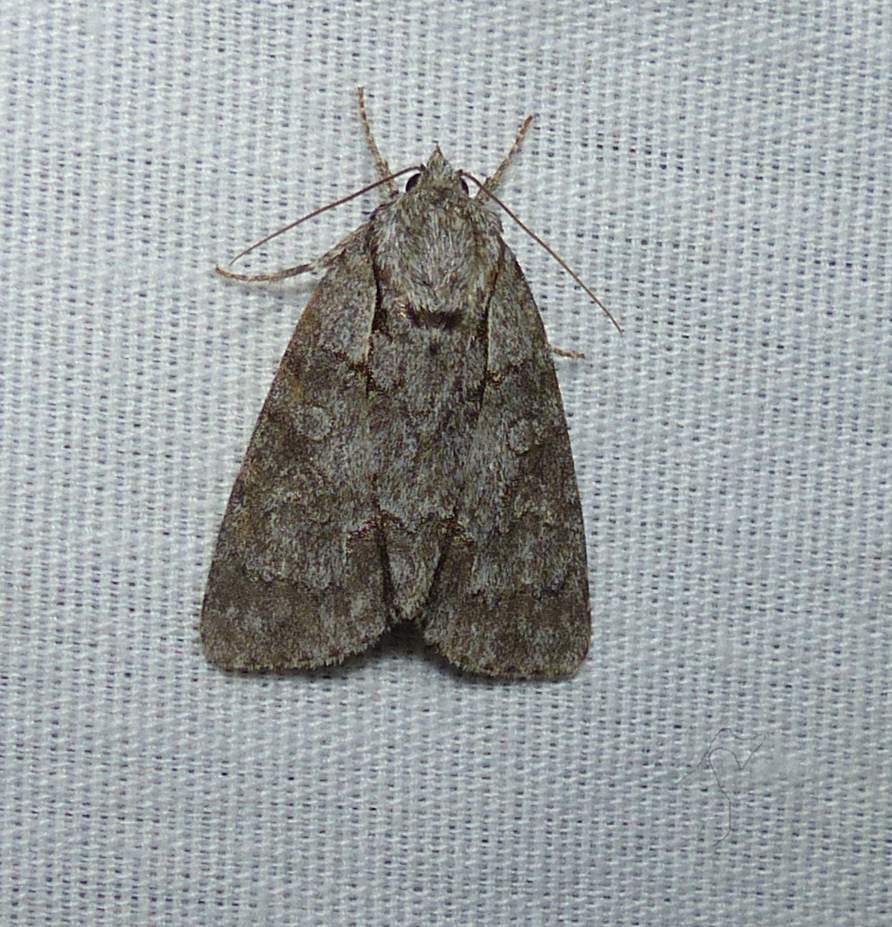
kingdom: Animalia
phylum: Arthropoda
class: Insecta
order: Lepidoptera
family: Noctuidae
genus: Acronicta
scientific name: Acronicta grisea
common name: Gray dagger
